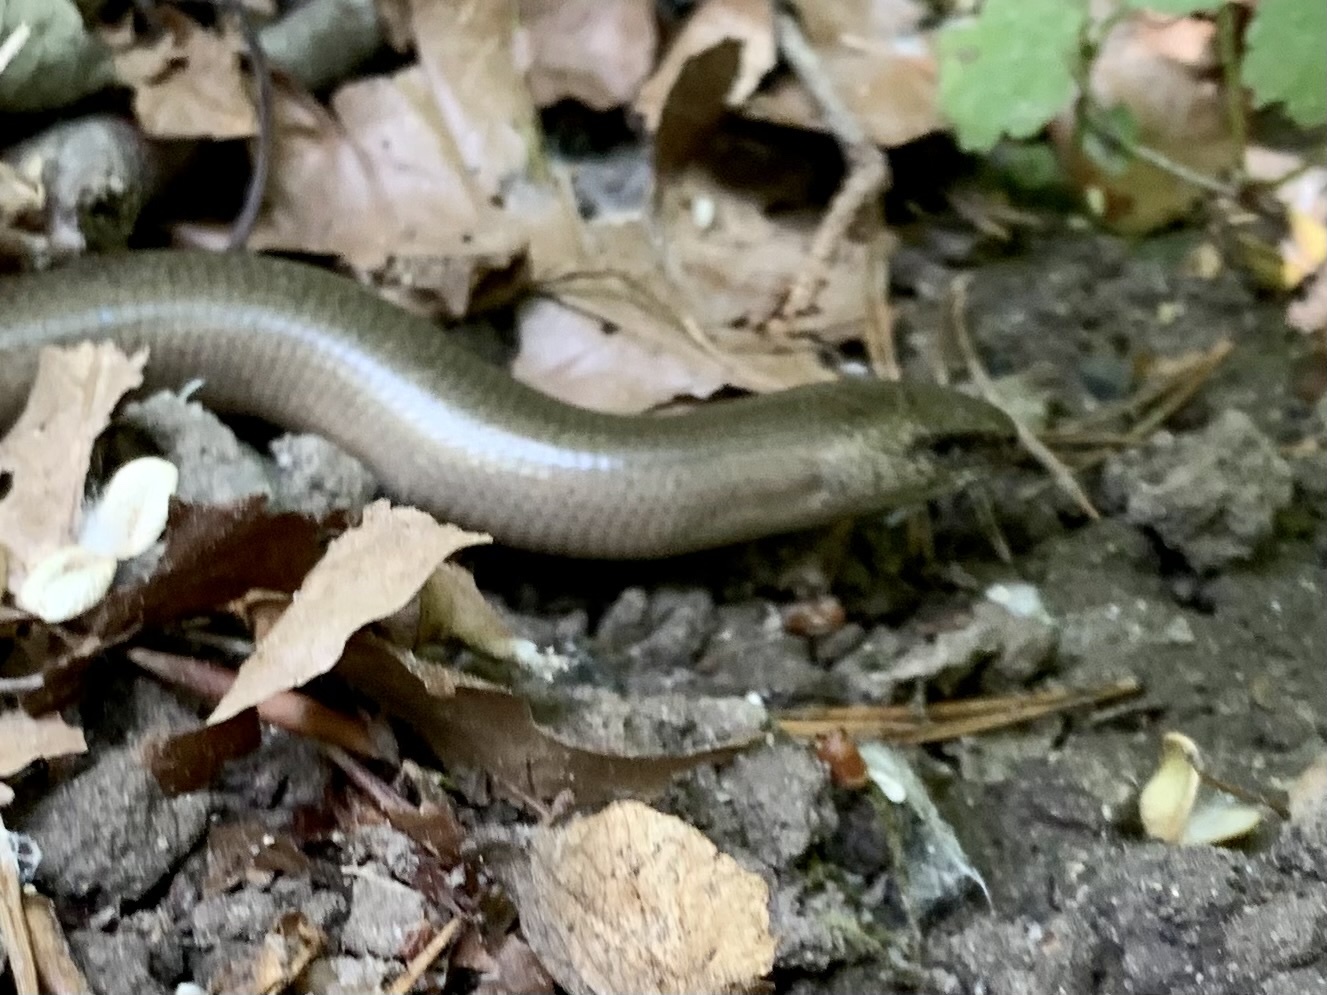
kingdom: Animalia
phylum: Chordata
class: Squamata
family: Anguidae
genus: Anguis
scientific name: Anguis fragilis
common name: Slow worm
